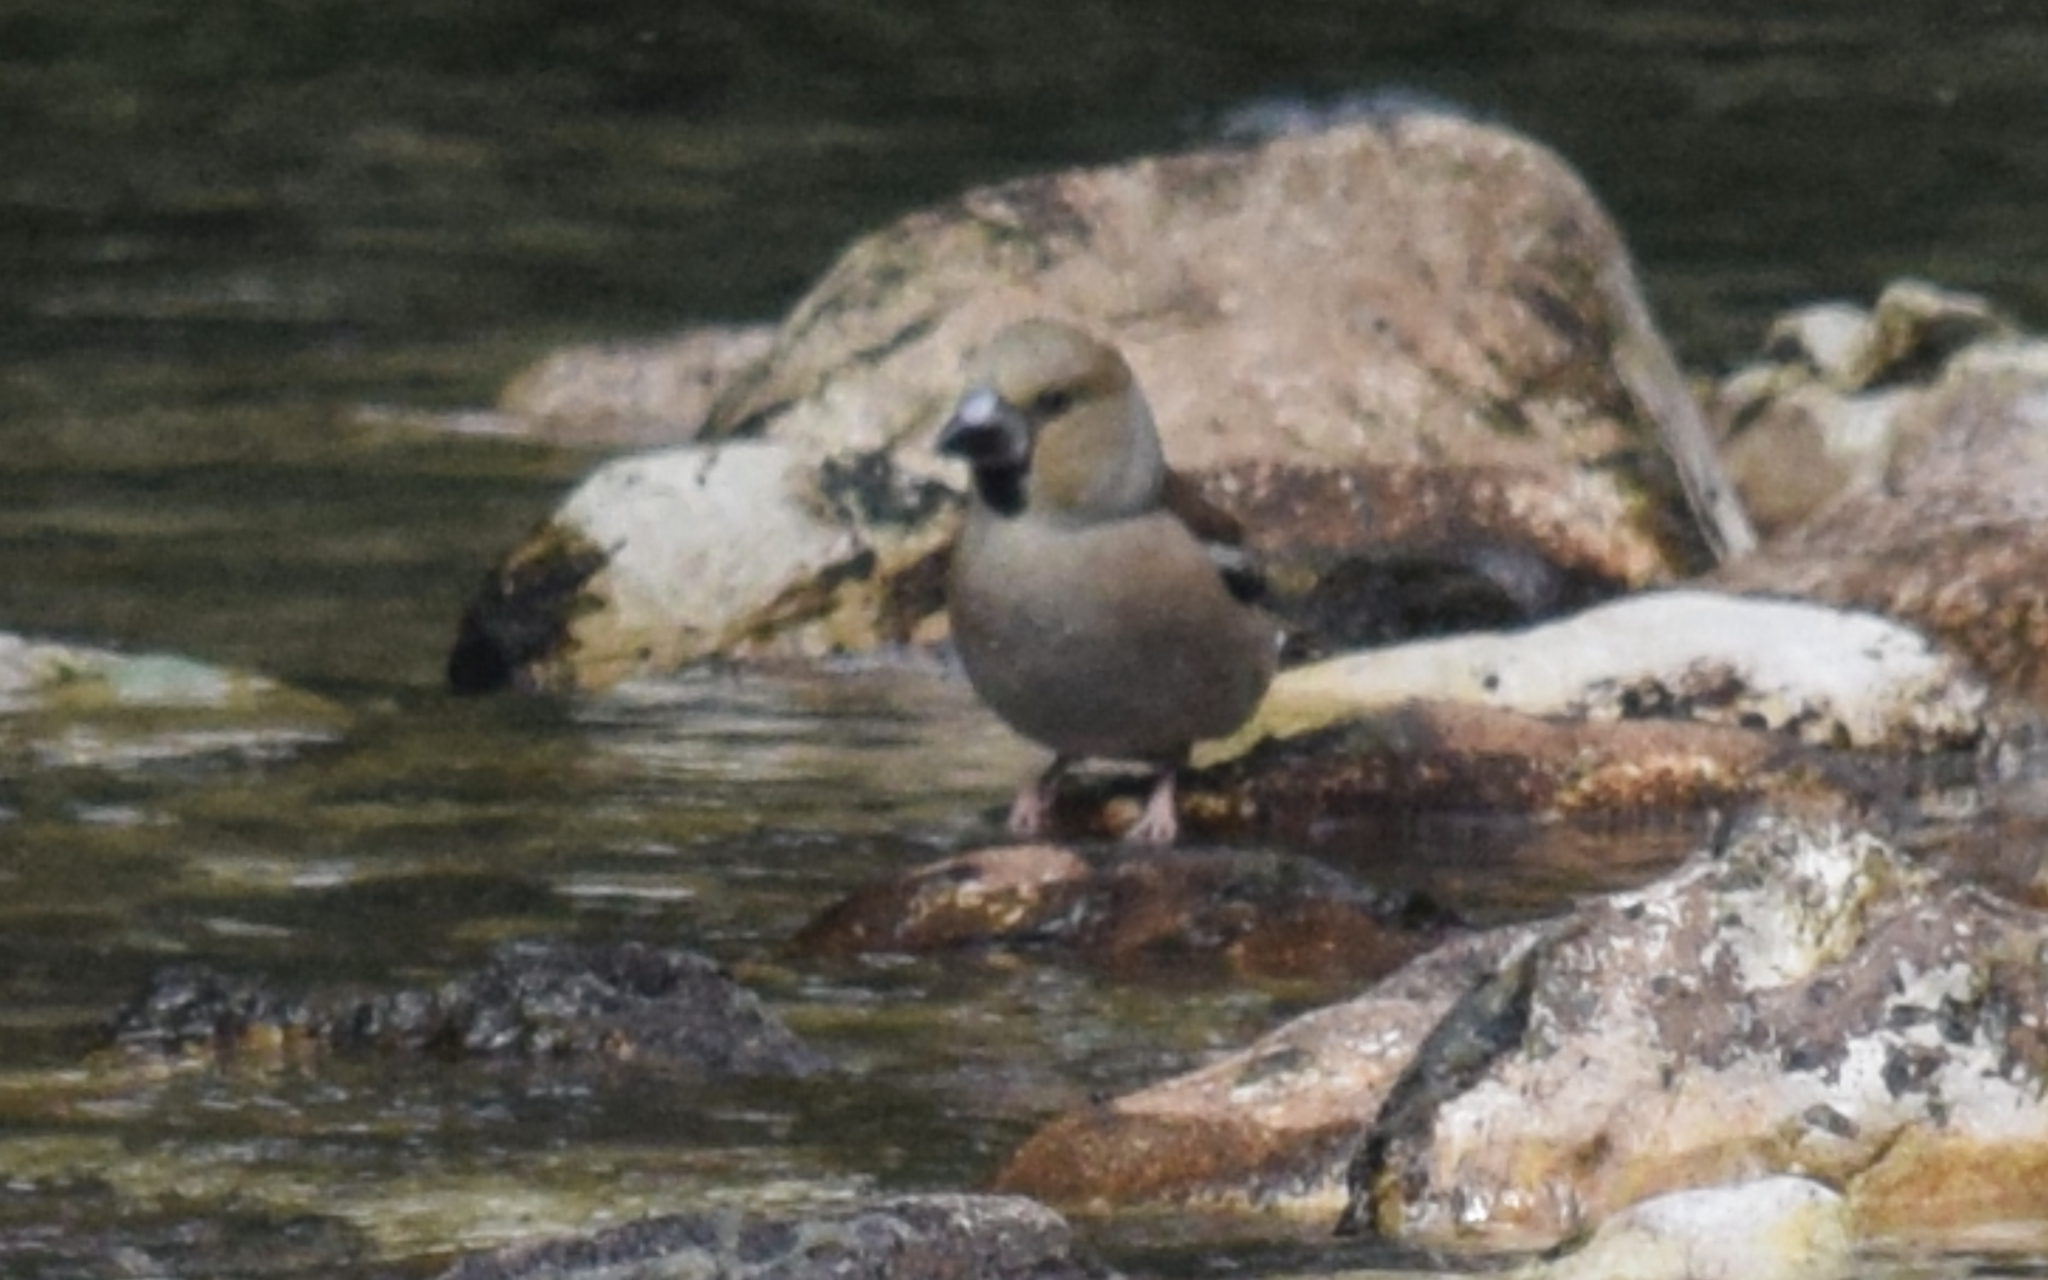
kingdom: Animalia
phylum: Chordata
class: Aves
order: Passeriformes
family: Fringillidae
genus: Coccothraustes
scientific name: Coccothraustes coccothraustes
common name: Hawfinch
